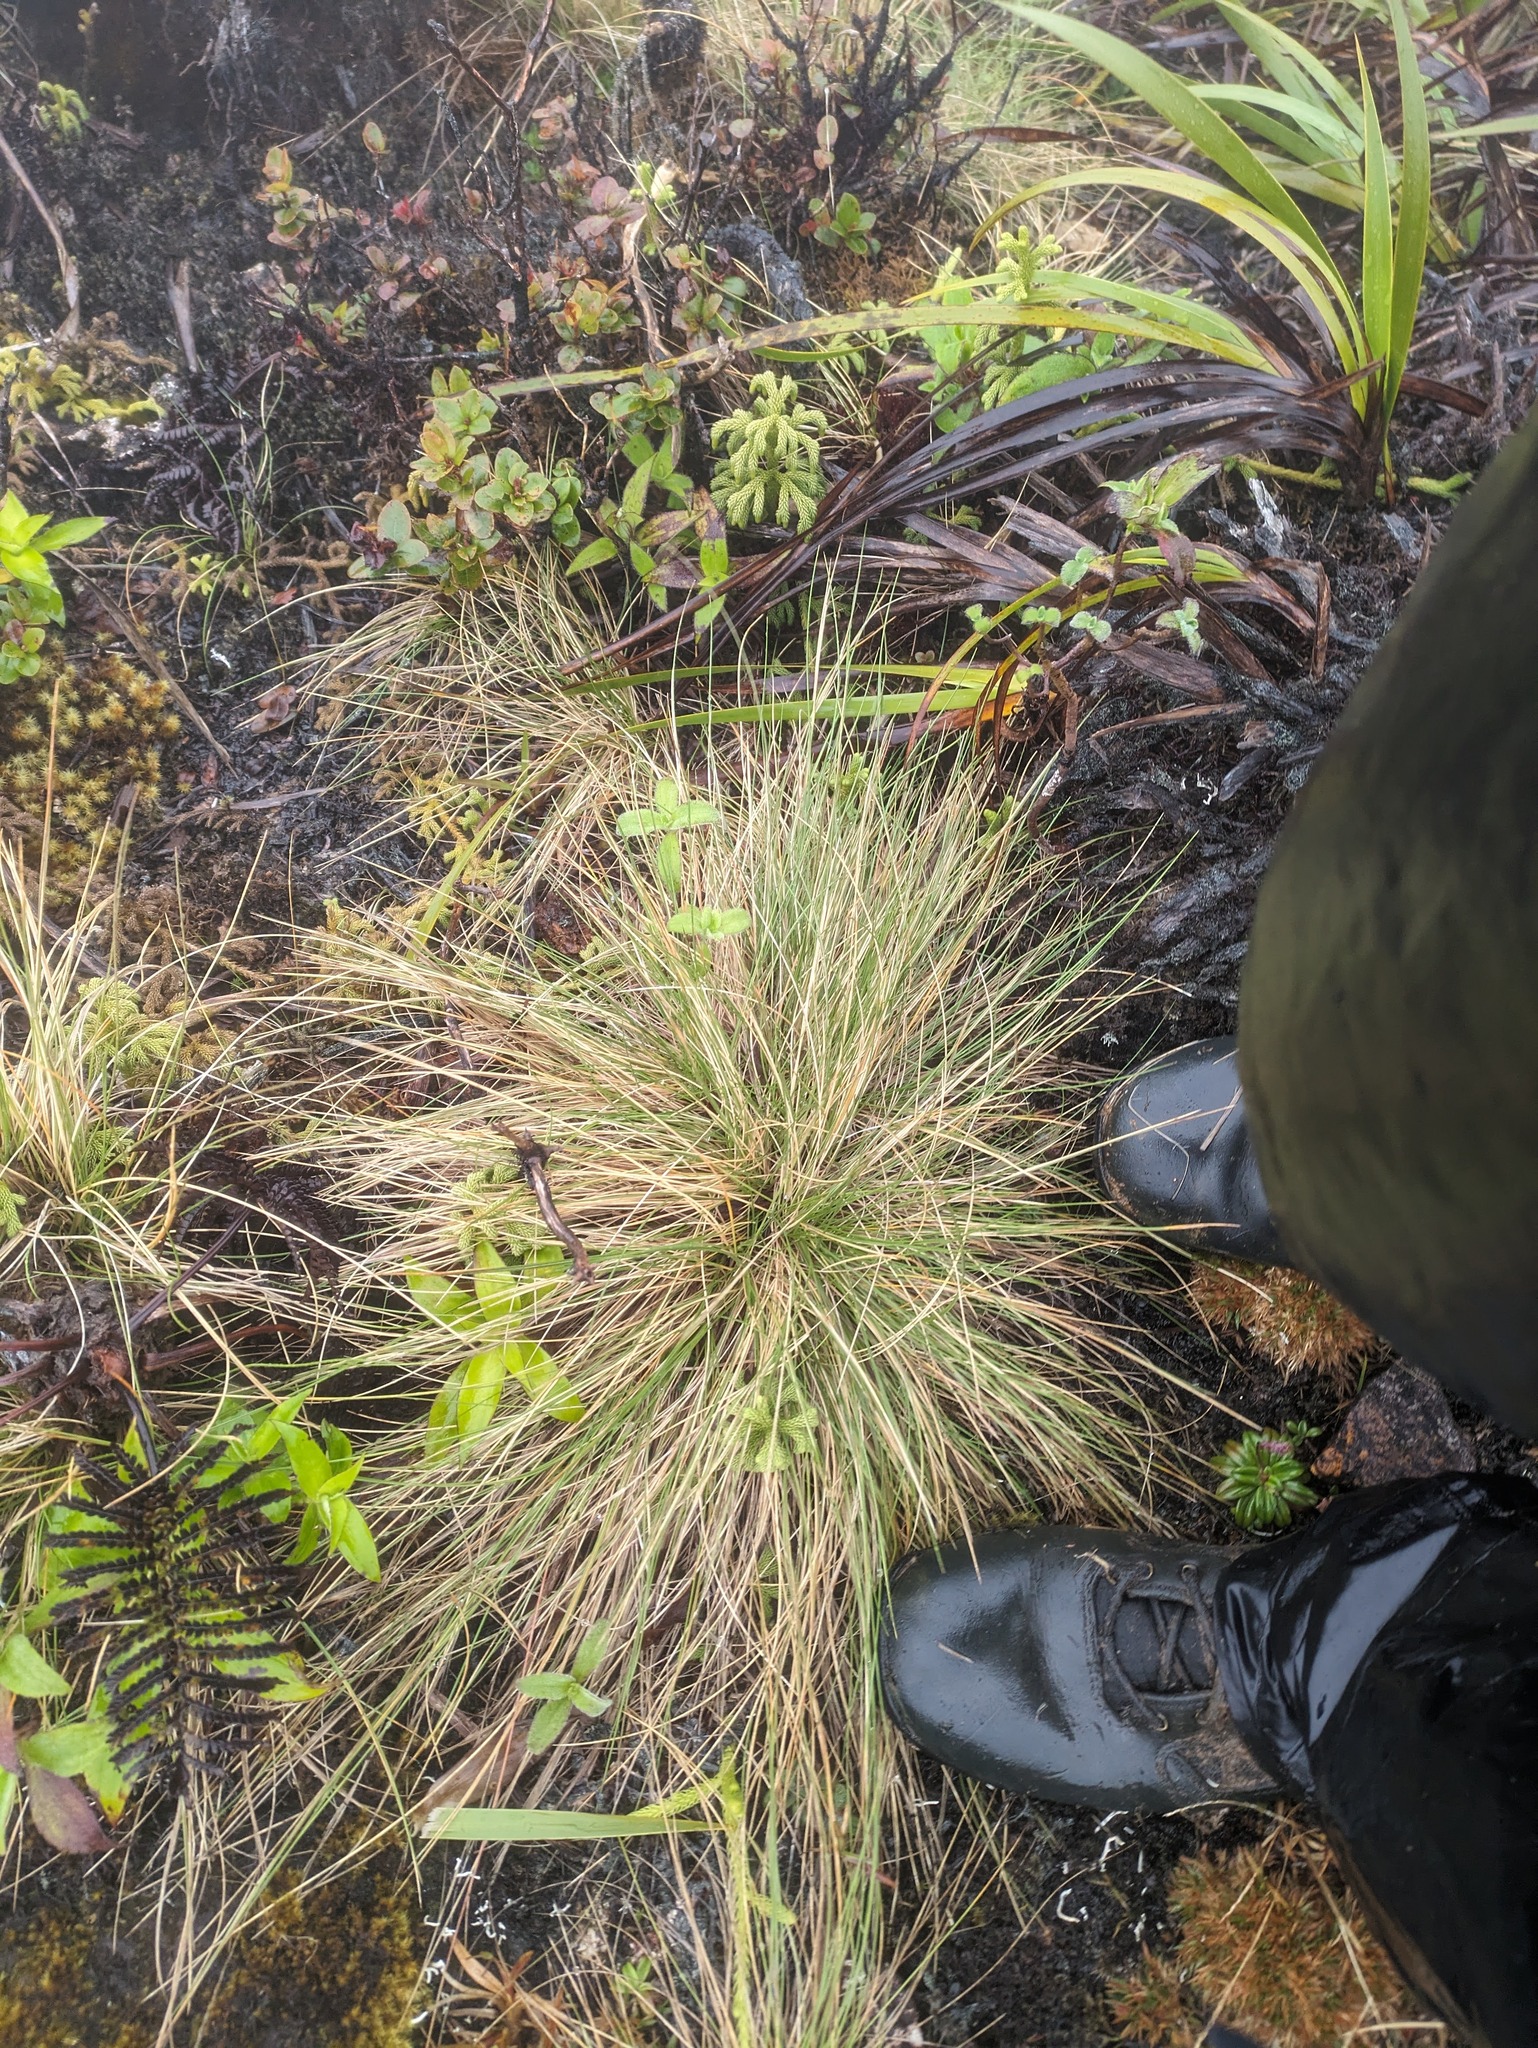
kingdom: Plantae
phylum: Tracheophyta
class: Liliopsida
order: Poales
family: Poaceae
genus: Deschampsia
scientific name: Deschampsia nubigena
